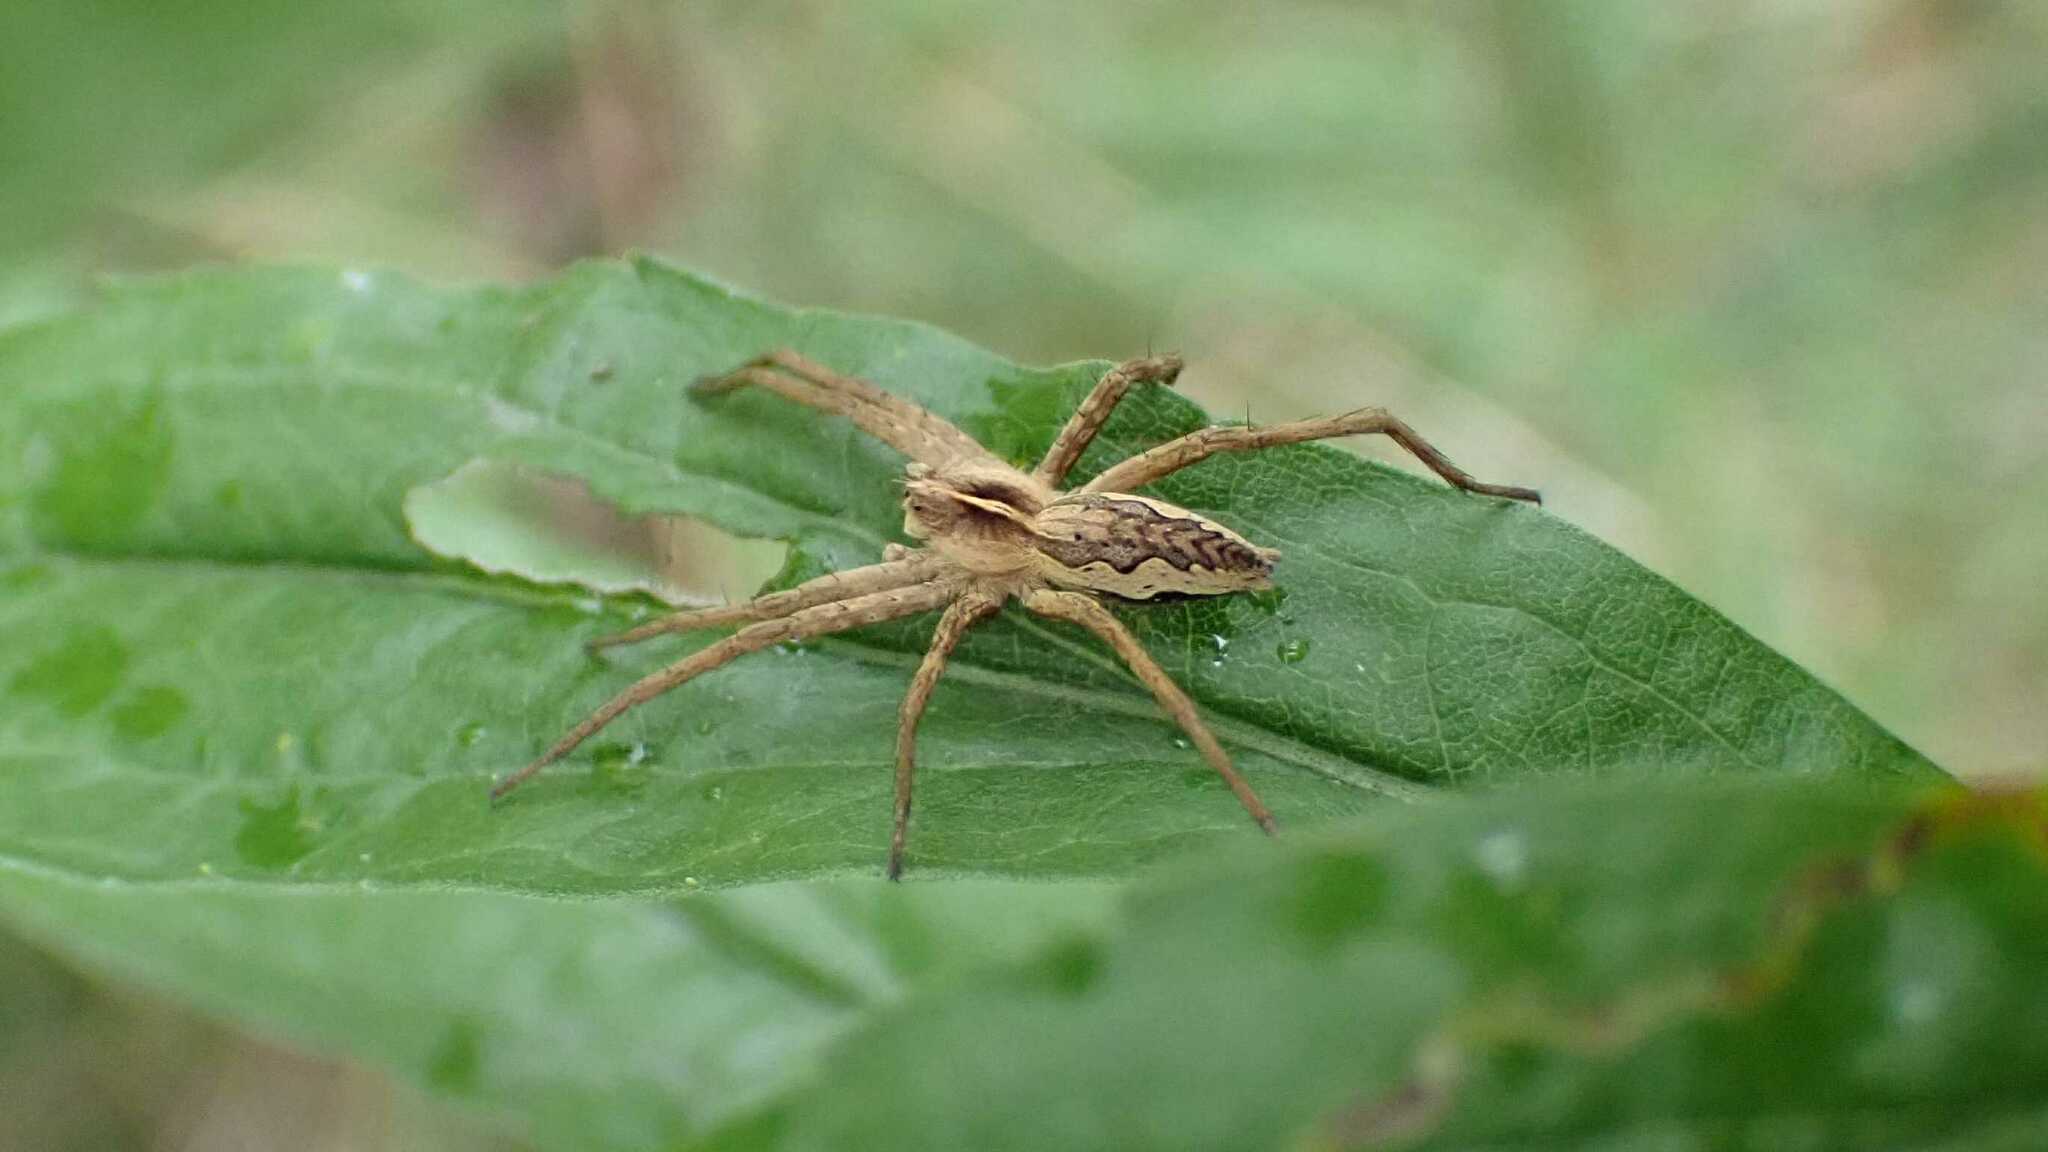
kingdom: Animalia
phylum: Arthropoda
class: Arachnida
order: Araneae
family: Pisauridae
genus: Pisaura
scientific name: Pisaura mirabilis
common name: Tent spider
